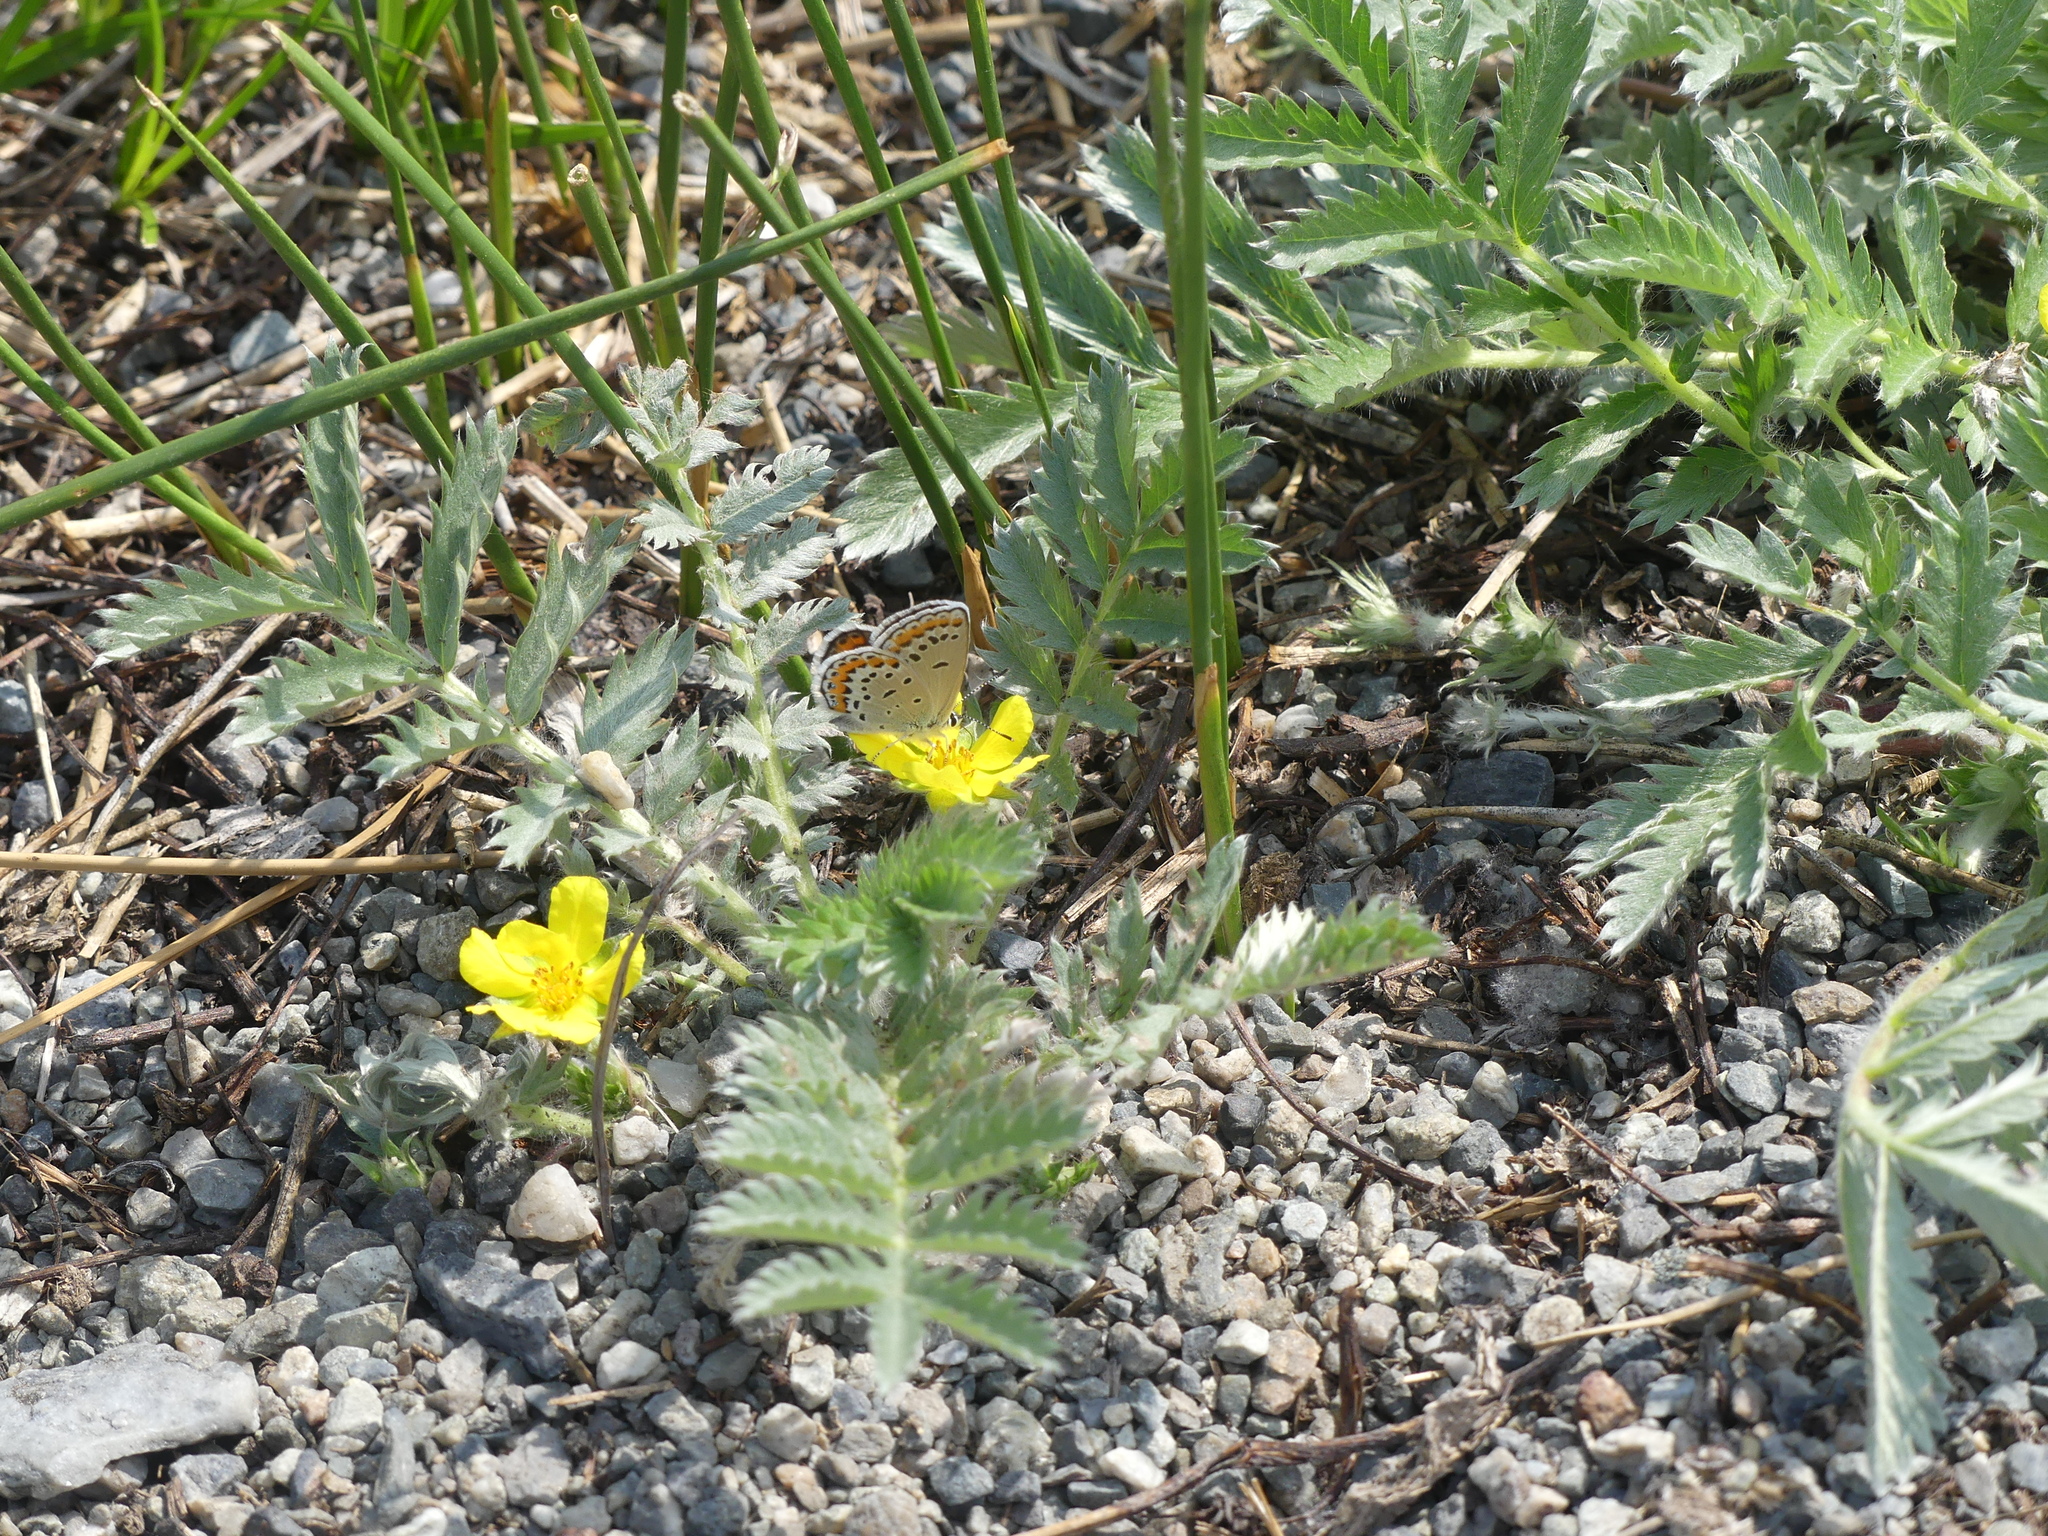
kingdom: Animalia
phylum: Arthropoda
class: Insecta
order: Lepidoptera
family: Lycaenidae
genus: Lycaeides
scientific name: Lycaeides melissa
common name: Melissa blue
